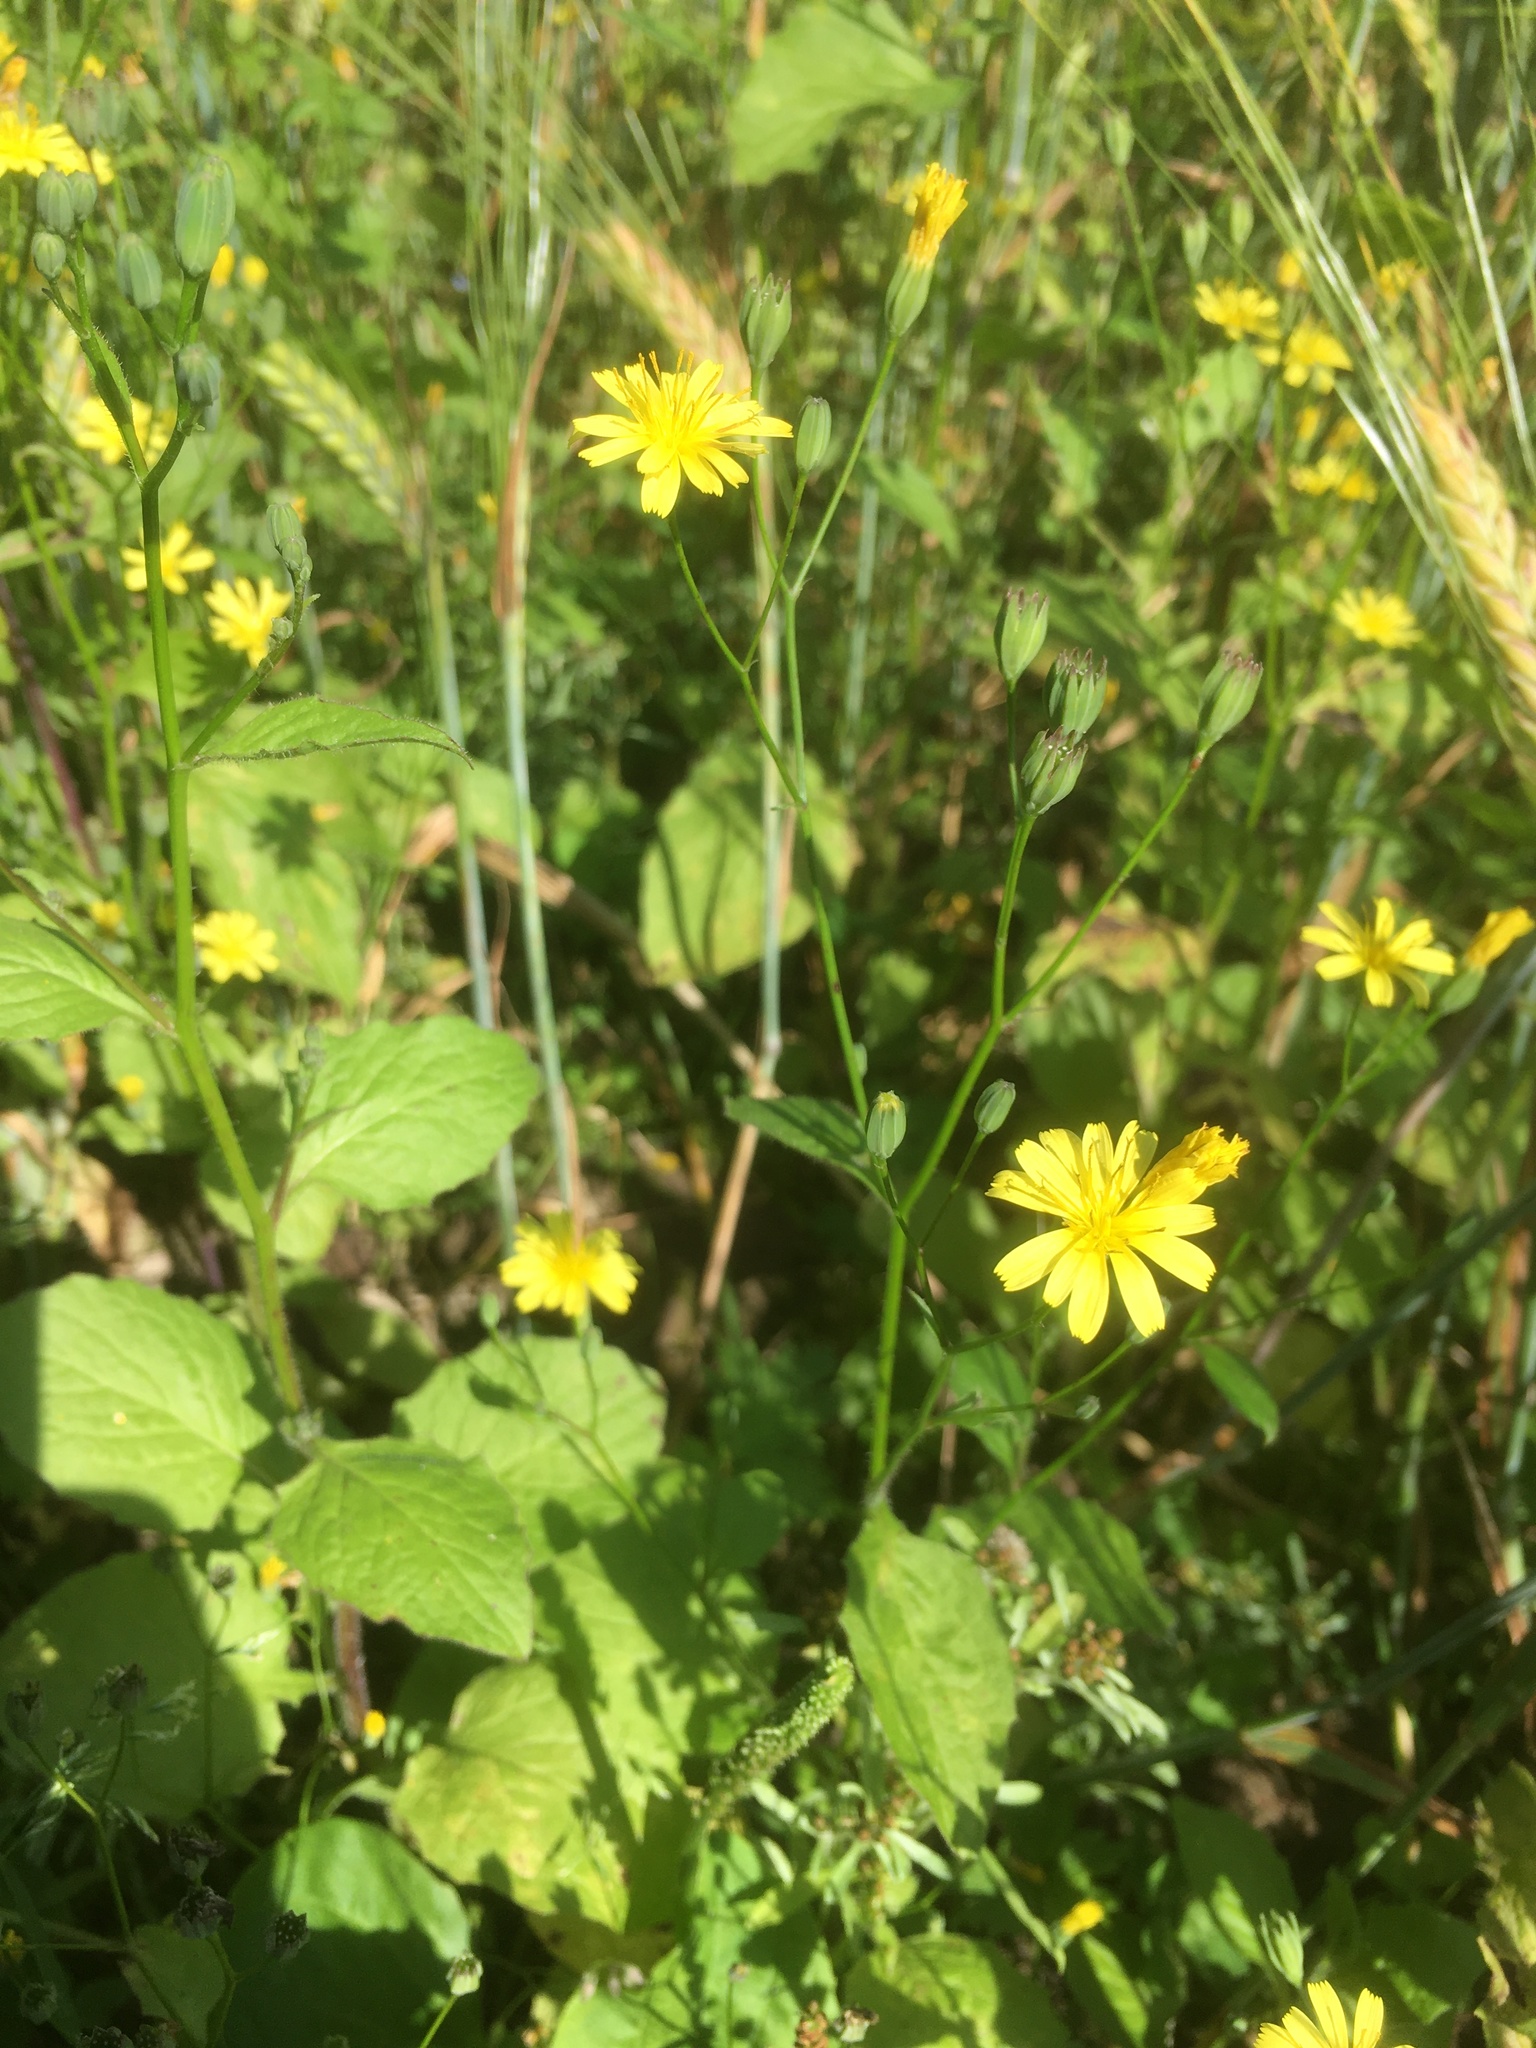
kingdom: Plantae
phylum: Tracheophyta
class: Magnoliopsida
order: Asterales
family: Asteraceae
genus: Lapsana
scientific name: Lapsana communis
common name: Nipplewort
